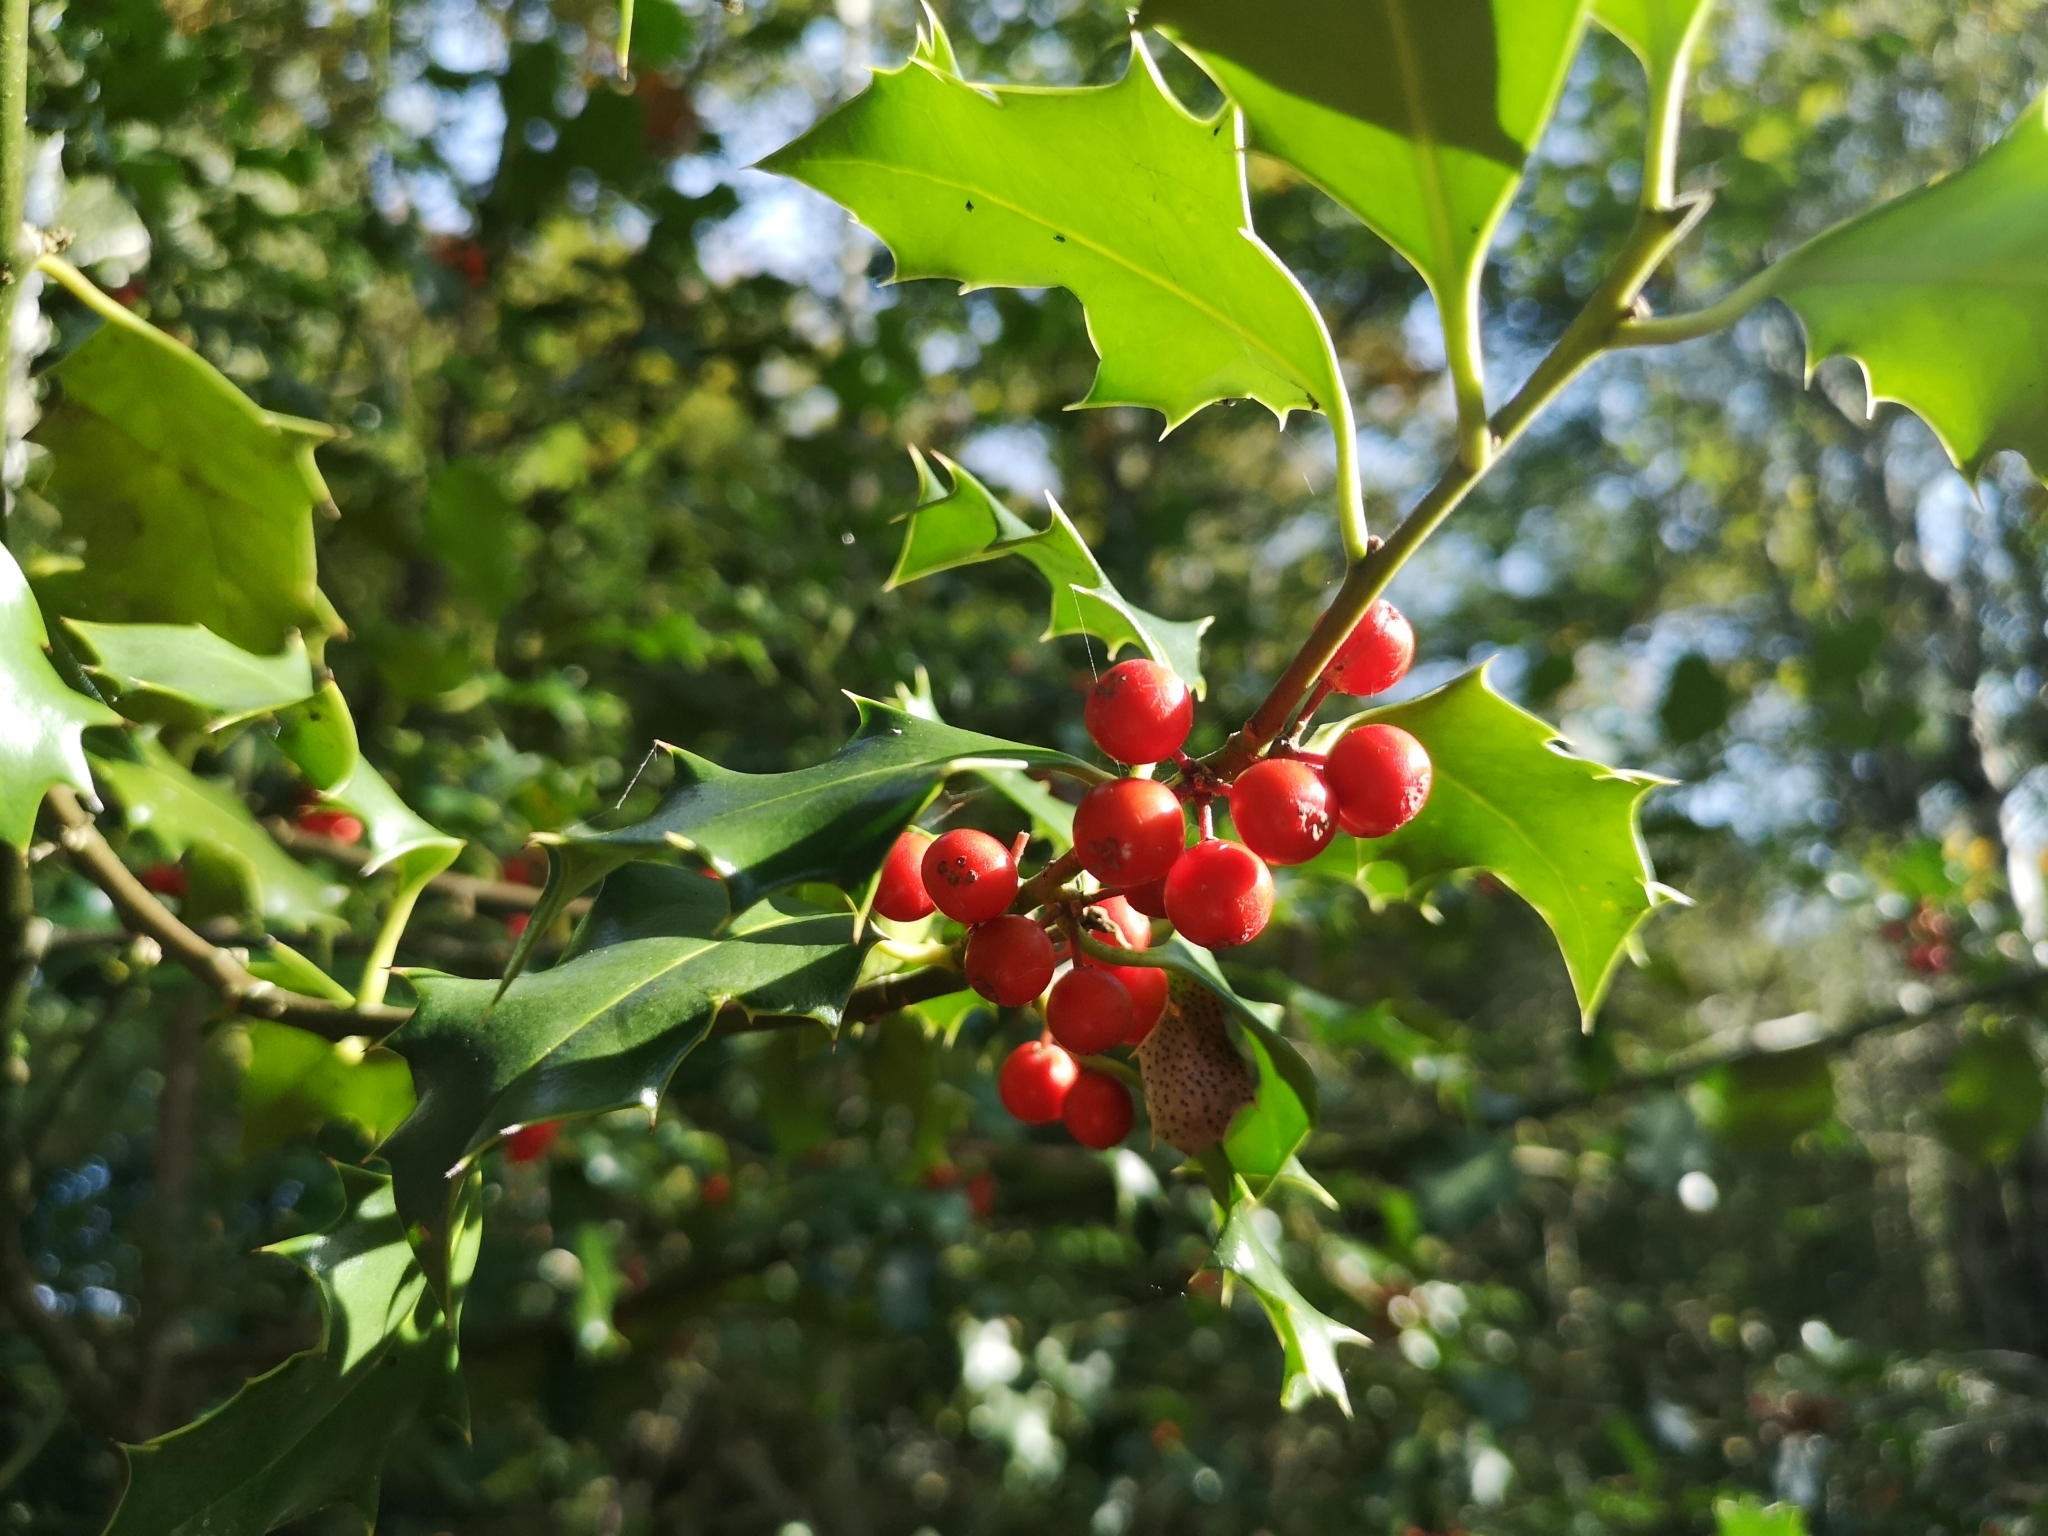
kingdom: Plantae
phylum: Tracheophyta
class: Magnoliopsida
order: Aquifoliales
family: Aquifoliaceae
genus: Ilex
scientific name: Ilex aquifolium
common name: English holly
